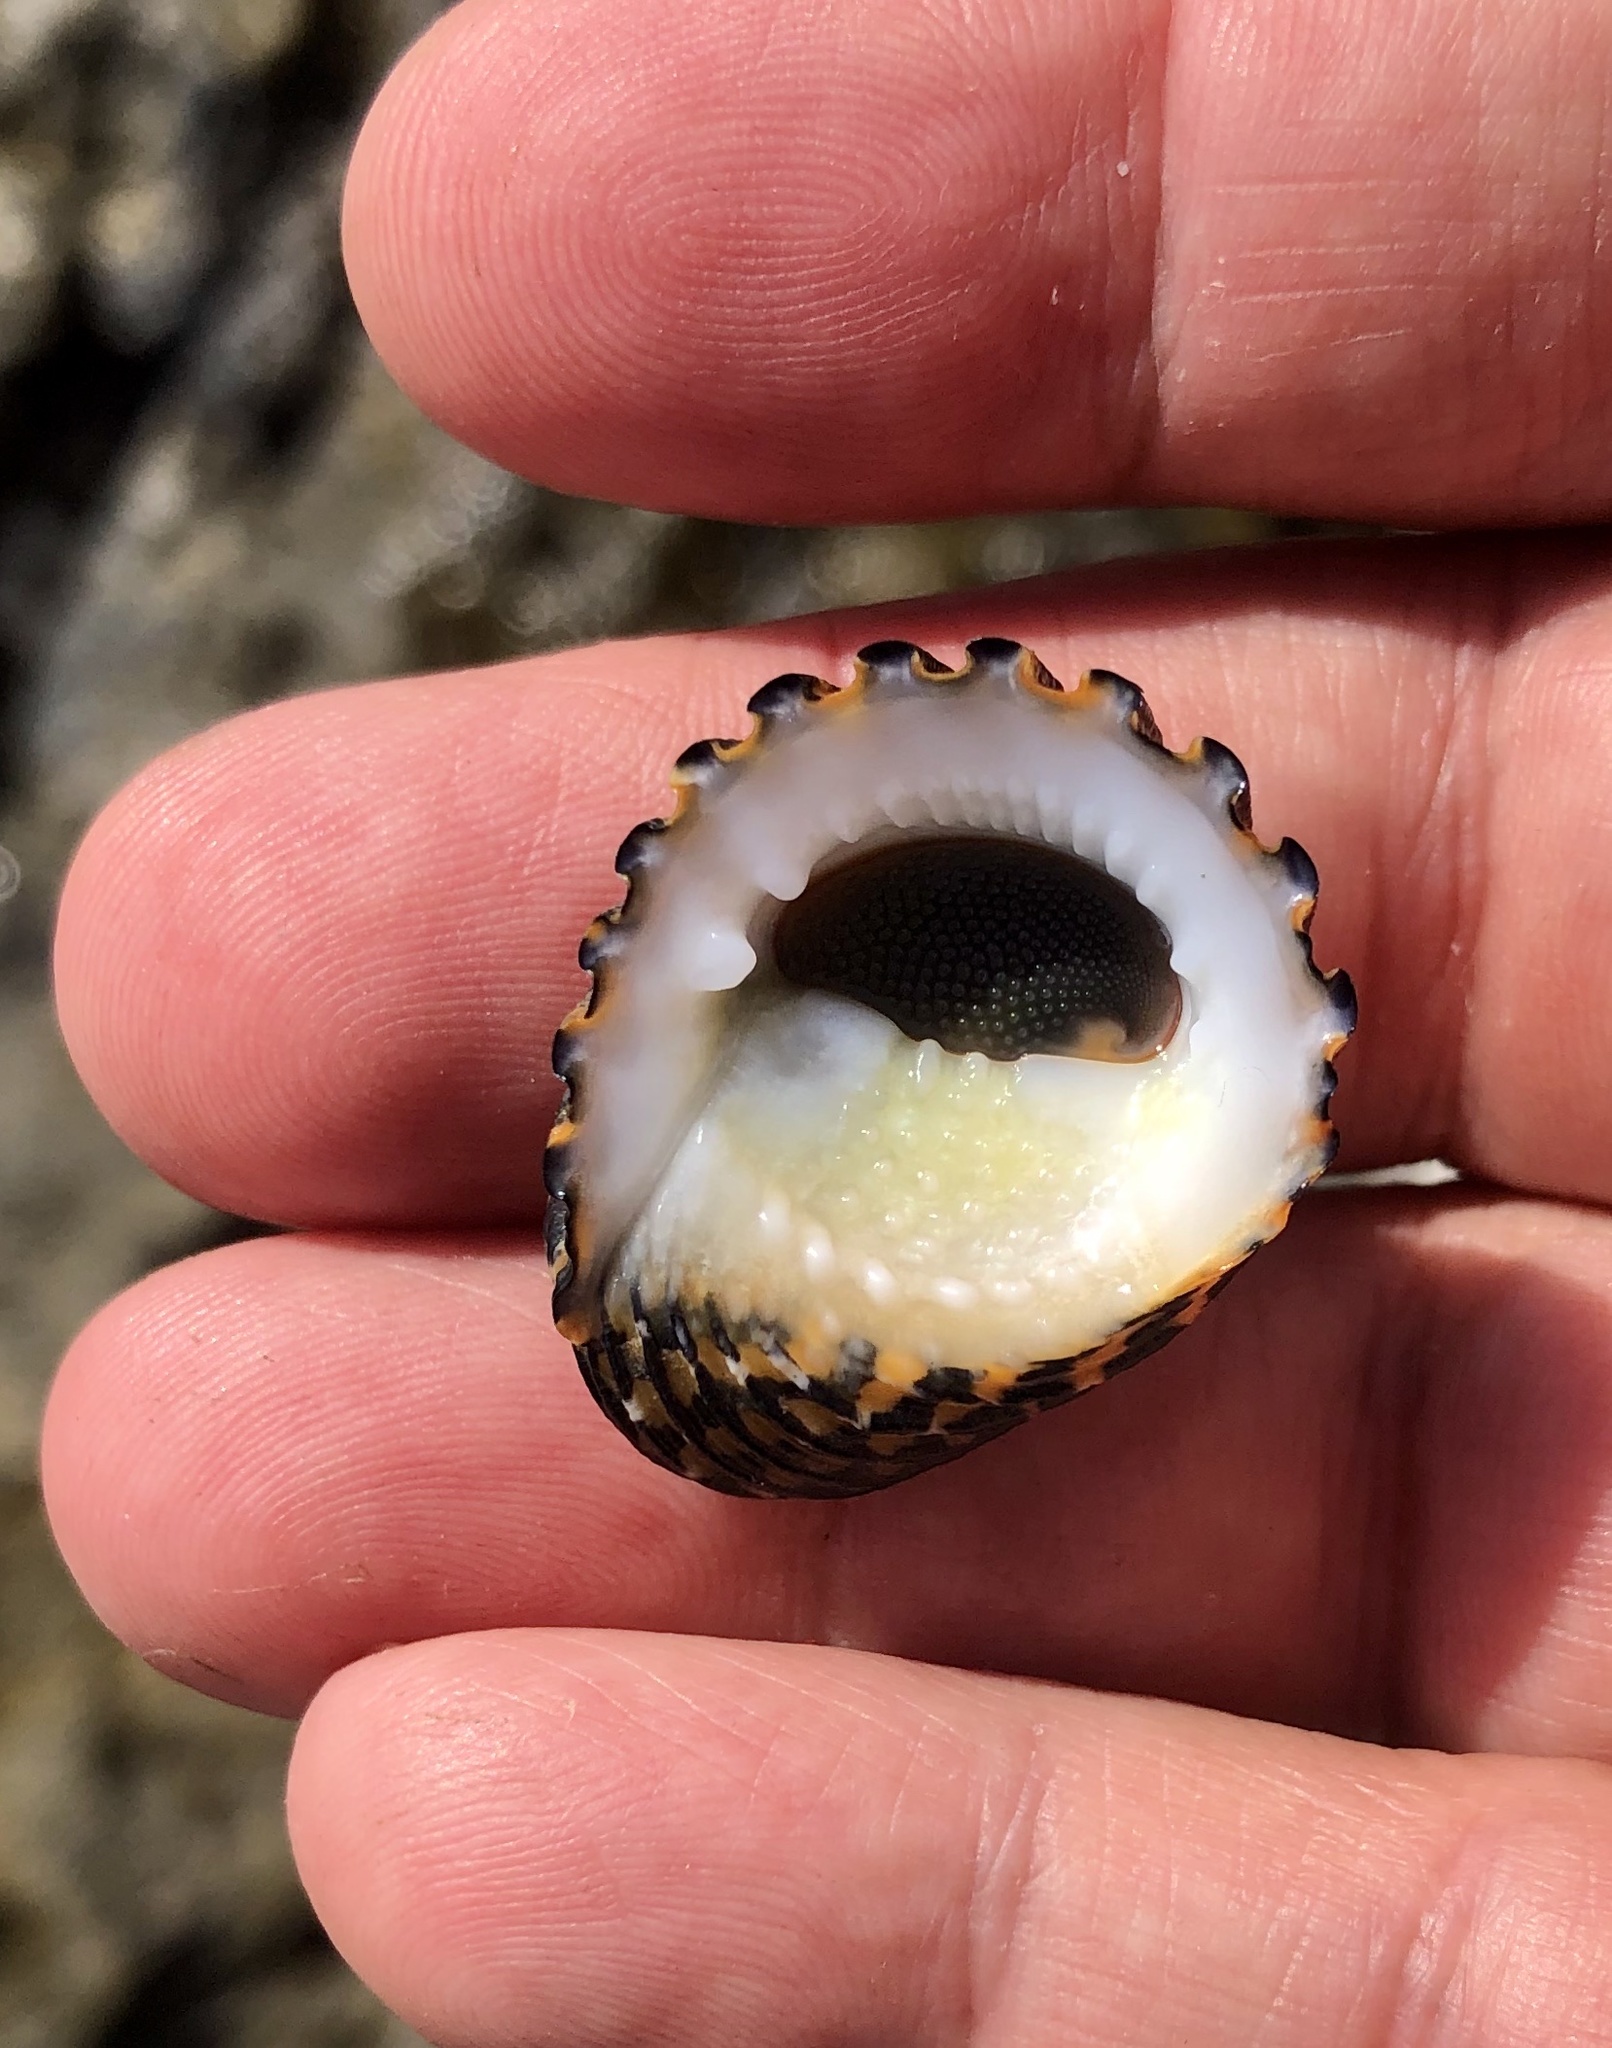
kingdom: Animalia
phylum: Mollusca
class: Gastropoda
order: Cycloneritida
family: Neritidae
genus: Nerita
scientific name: Nerita exuvia
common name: Snake-skin nerite
